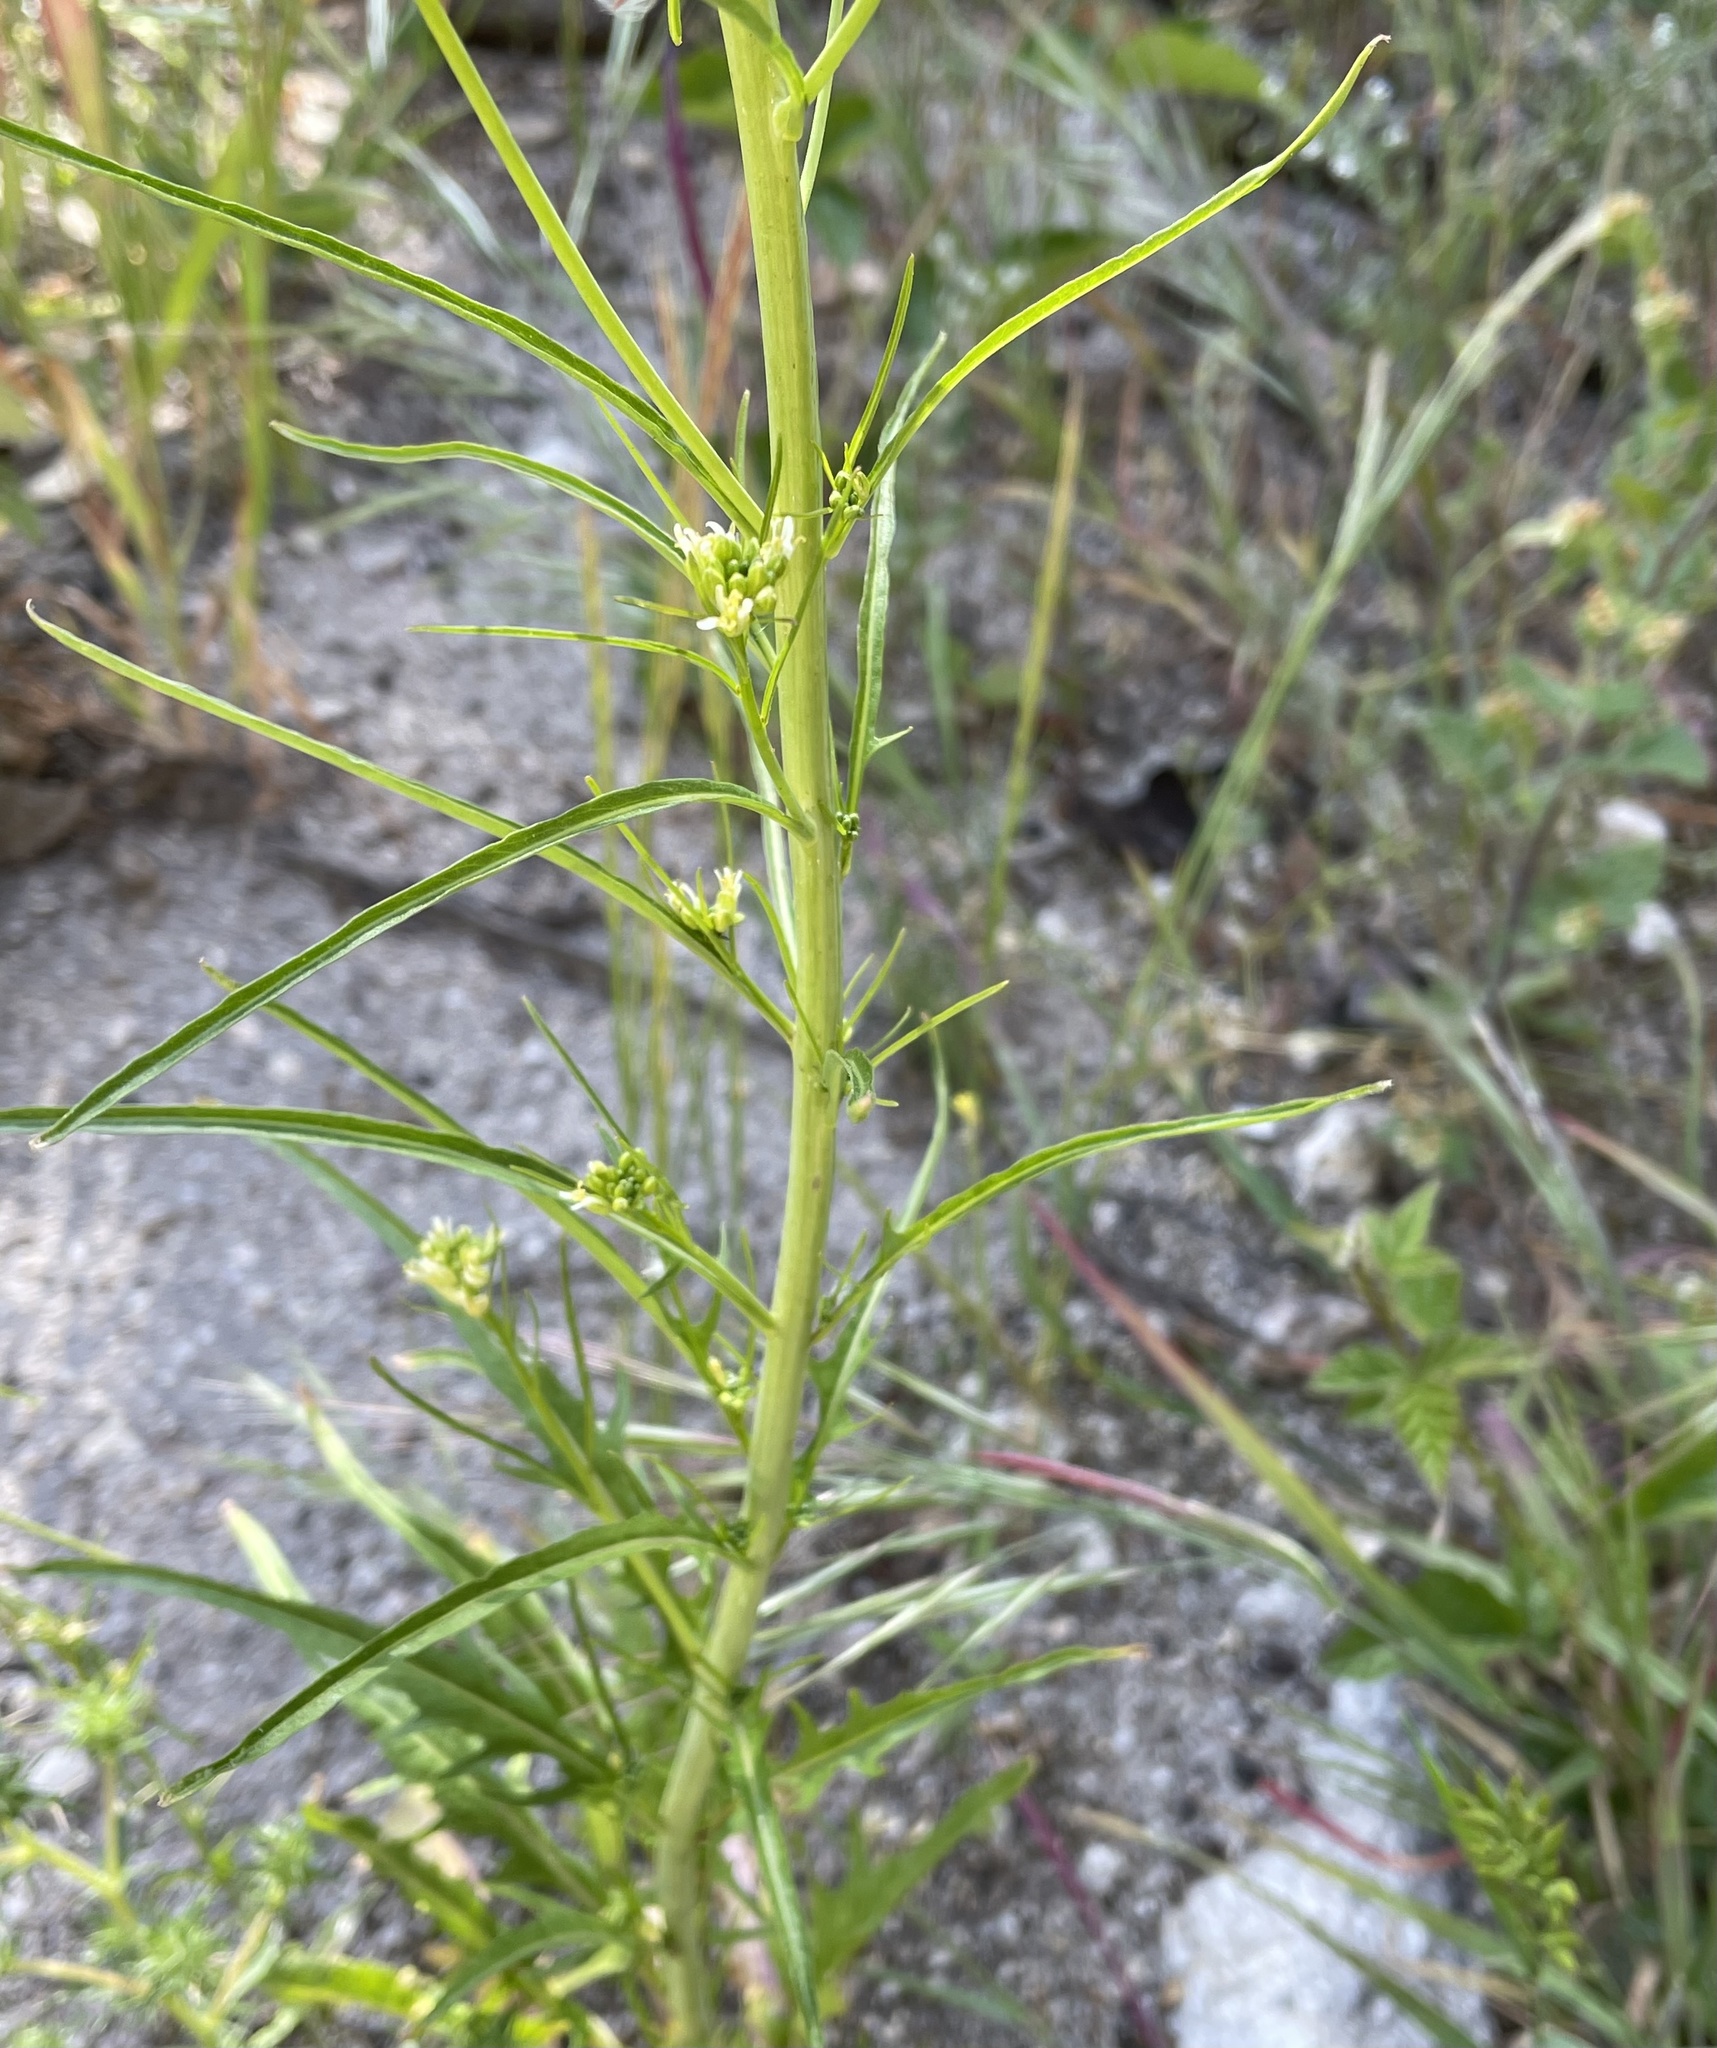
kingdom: Plantae
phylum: Tracheophyta
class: Magnoliopsida
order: Brassicales
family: Brassicaceae
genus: Streptanthus
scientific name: Streptanthus lasiophyllus
